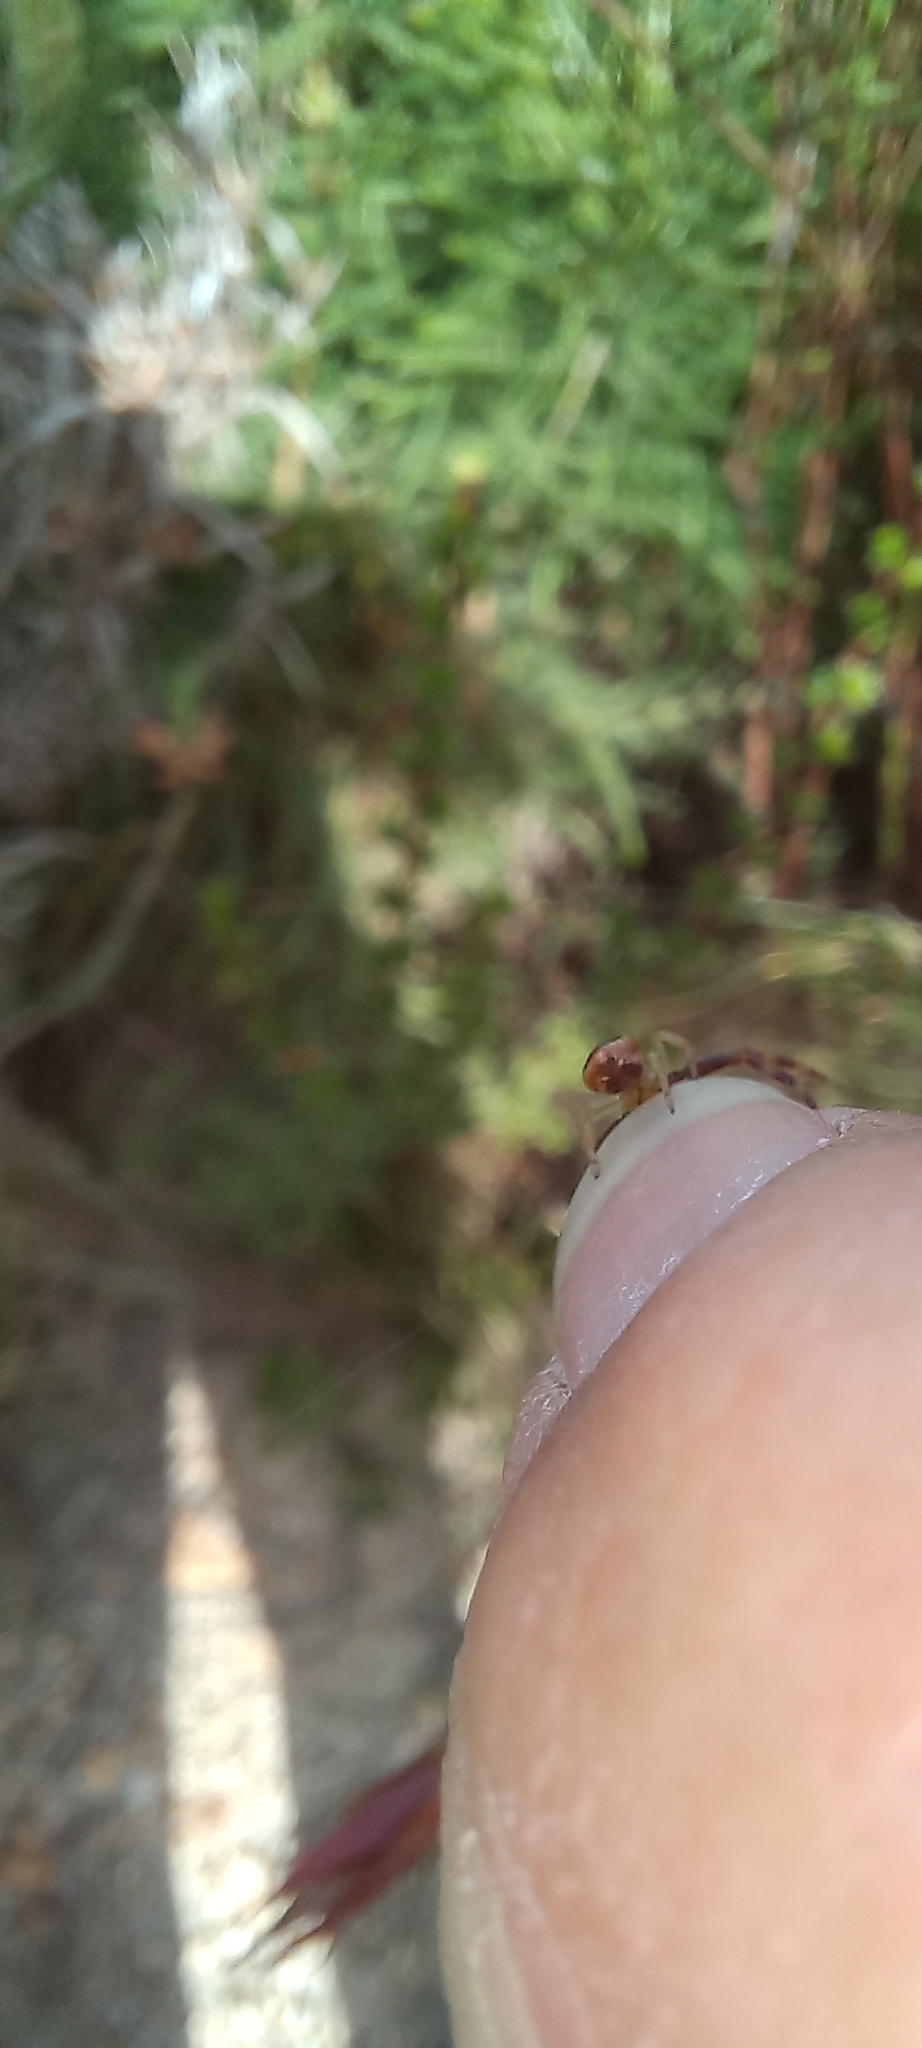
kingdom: Animalia
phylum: Arthropoda
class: Arachnida
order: Araneae
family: Thomisidae
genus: Synema
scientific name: Synema imitatrix
